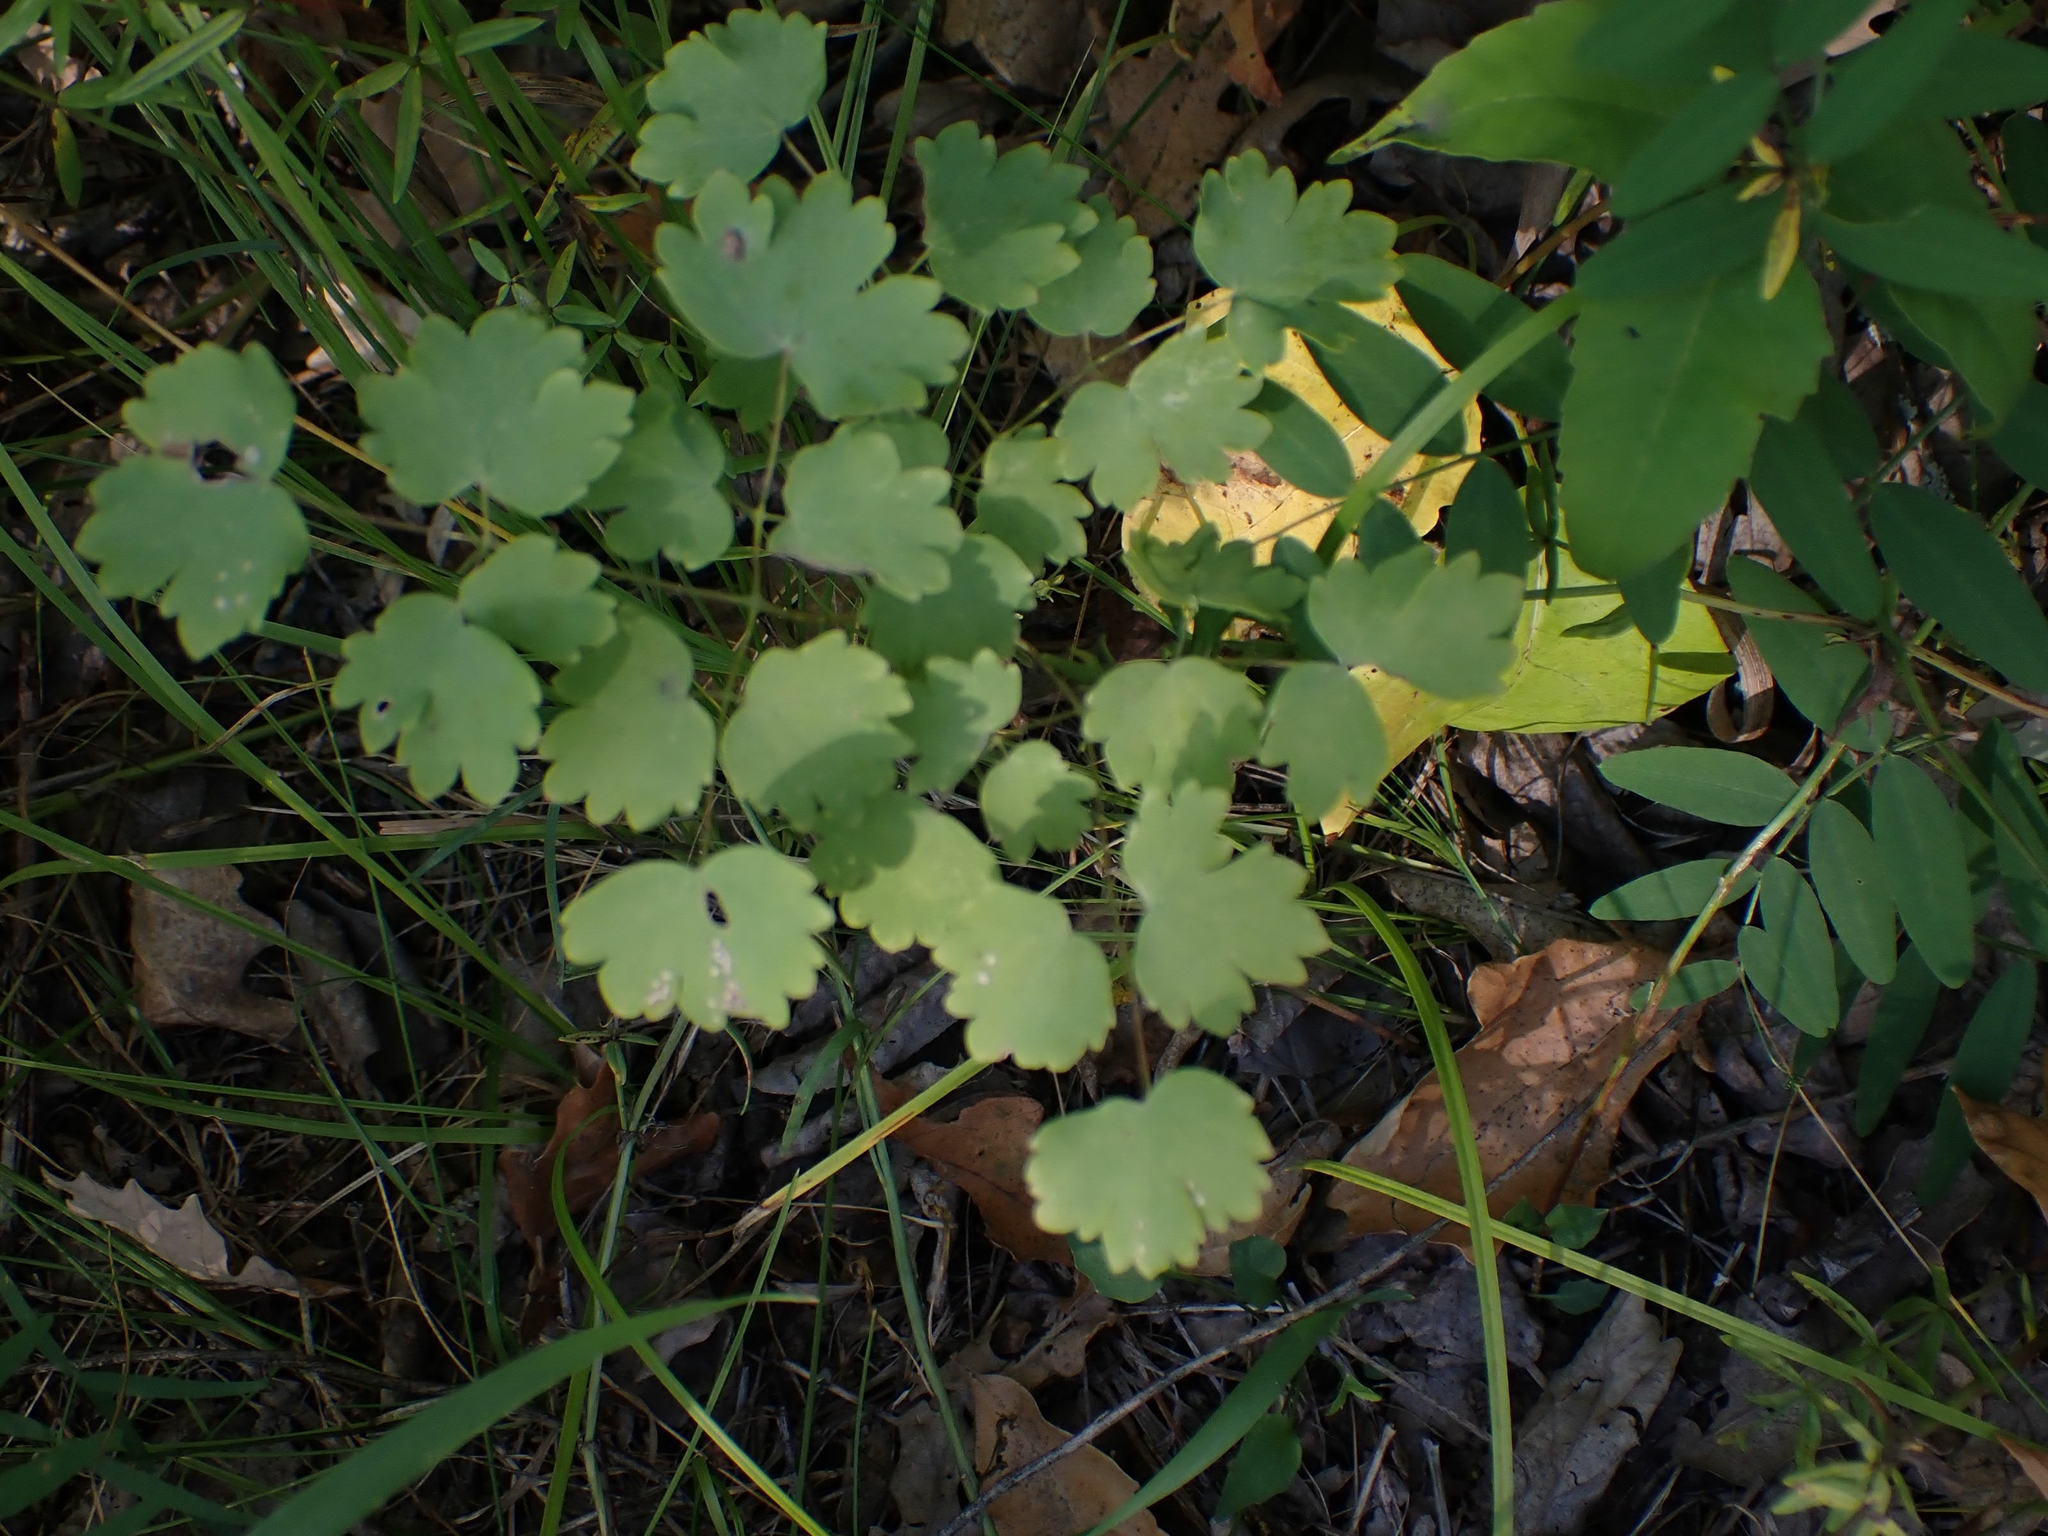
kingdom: Plantae
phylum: Tracheophyta
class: Magnoliopsida
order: Ranunculales
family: Ranunculaceae
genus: Thalictrum
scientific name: Thalictrum venulosum
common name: Early meadow-rue
